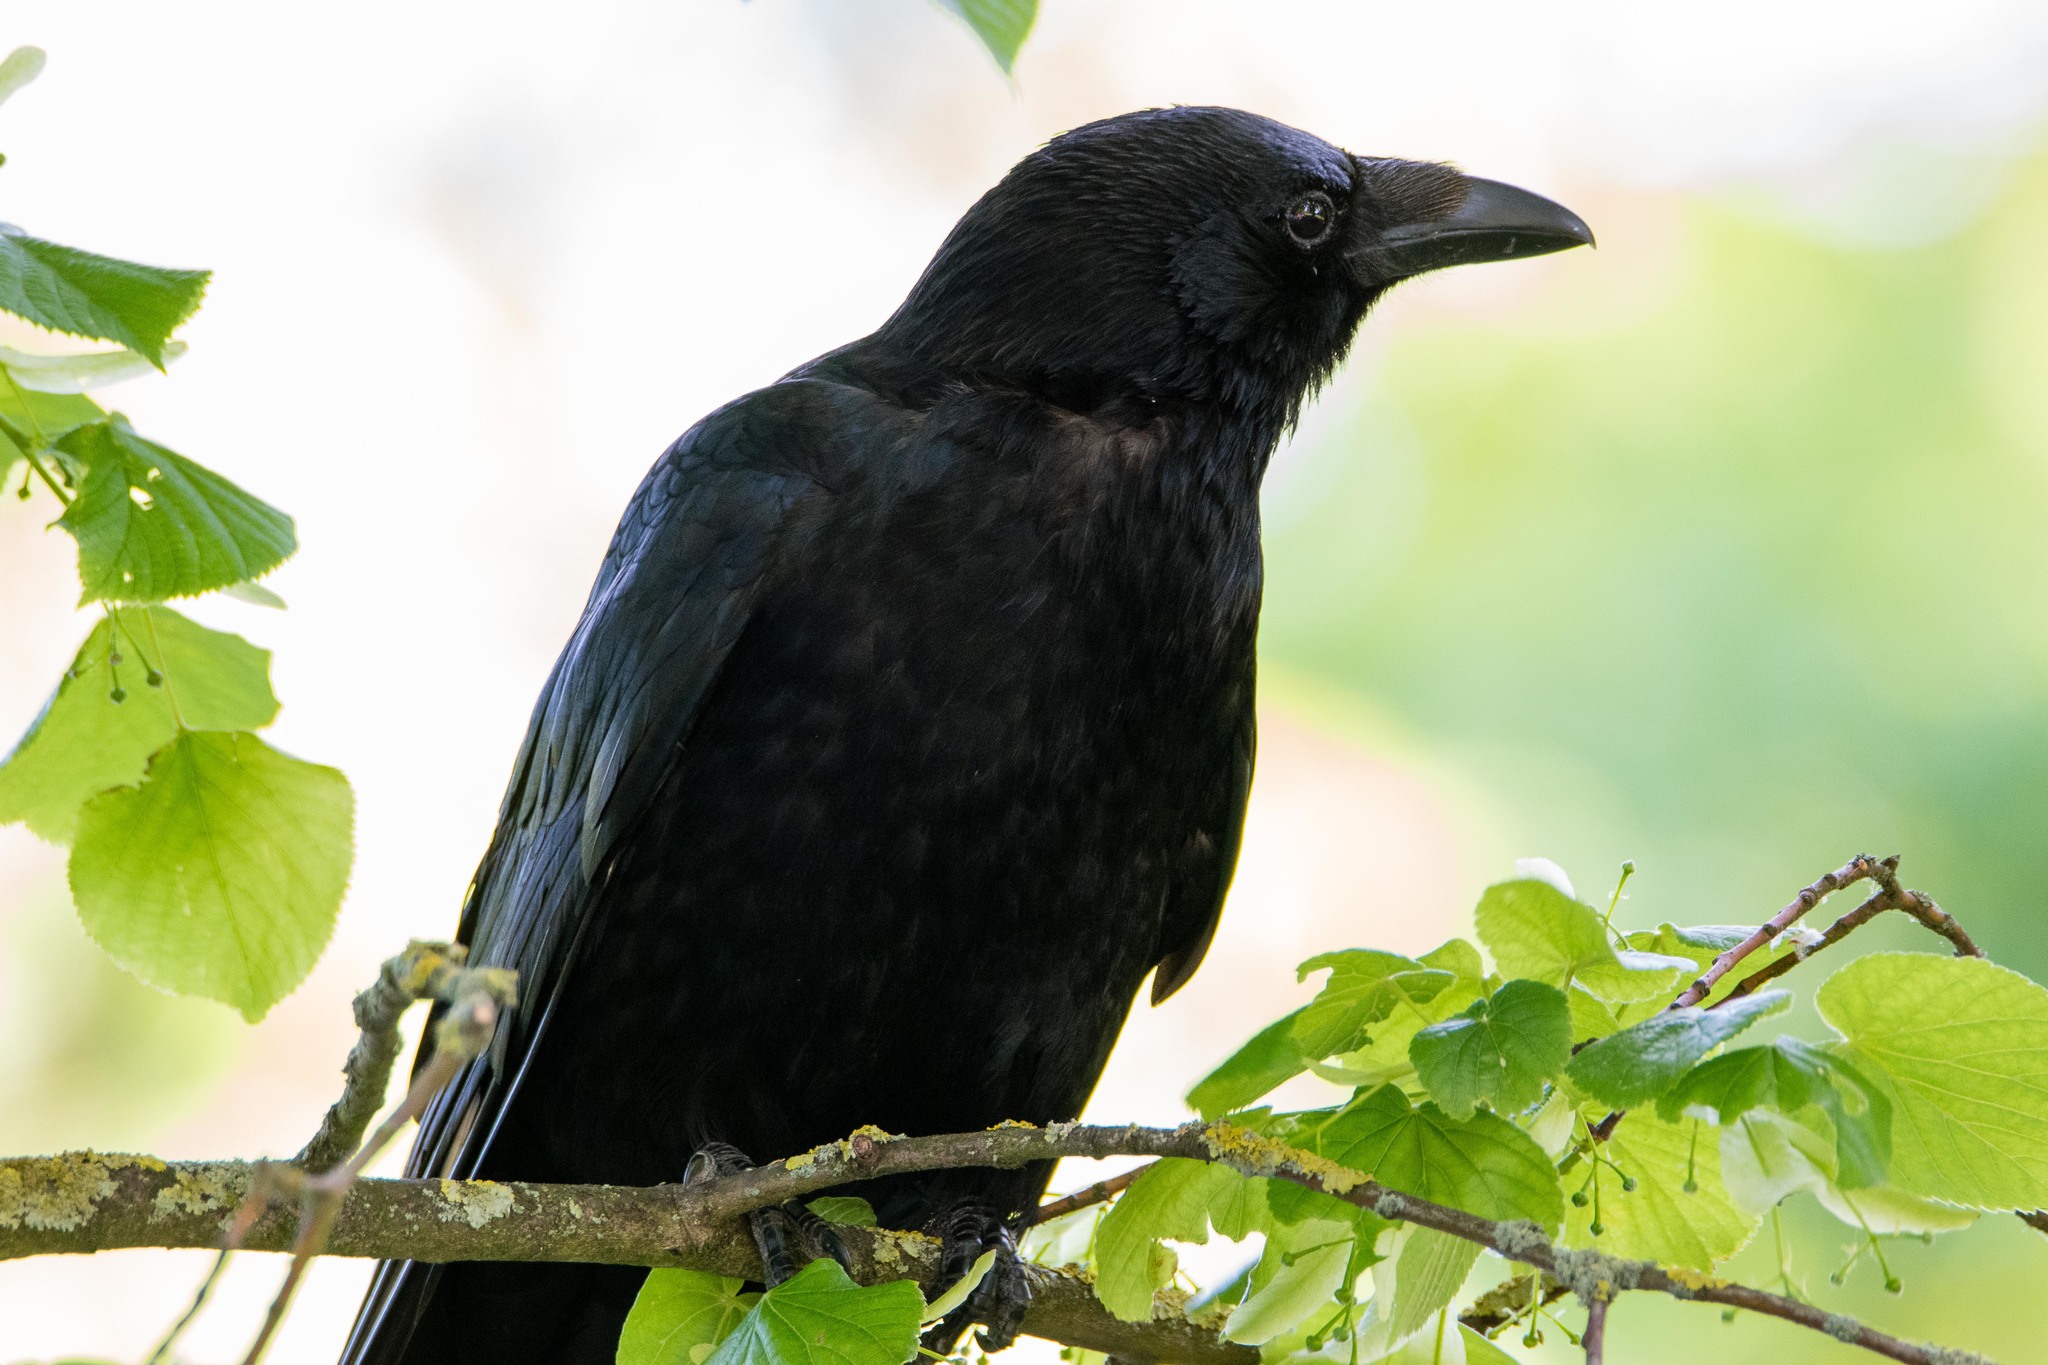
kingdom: Animalia
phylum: Chordata
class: Aves
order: Passeriformes
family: Corvidae
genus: Corvus
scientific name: Corvus corone
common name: Carrion crow
